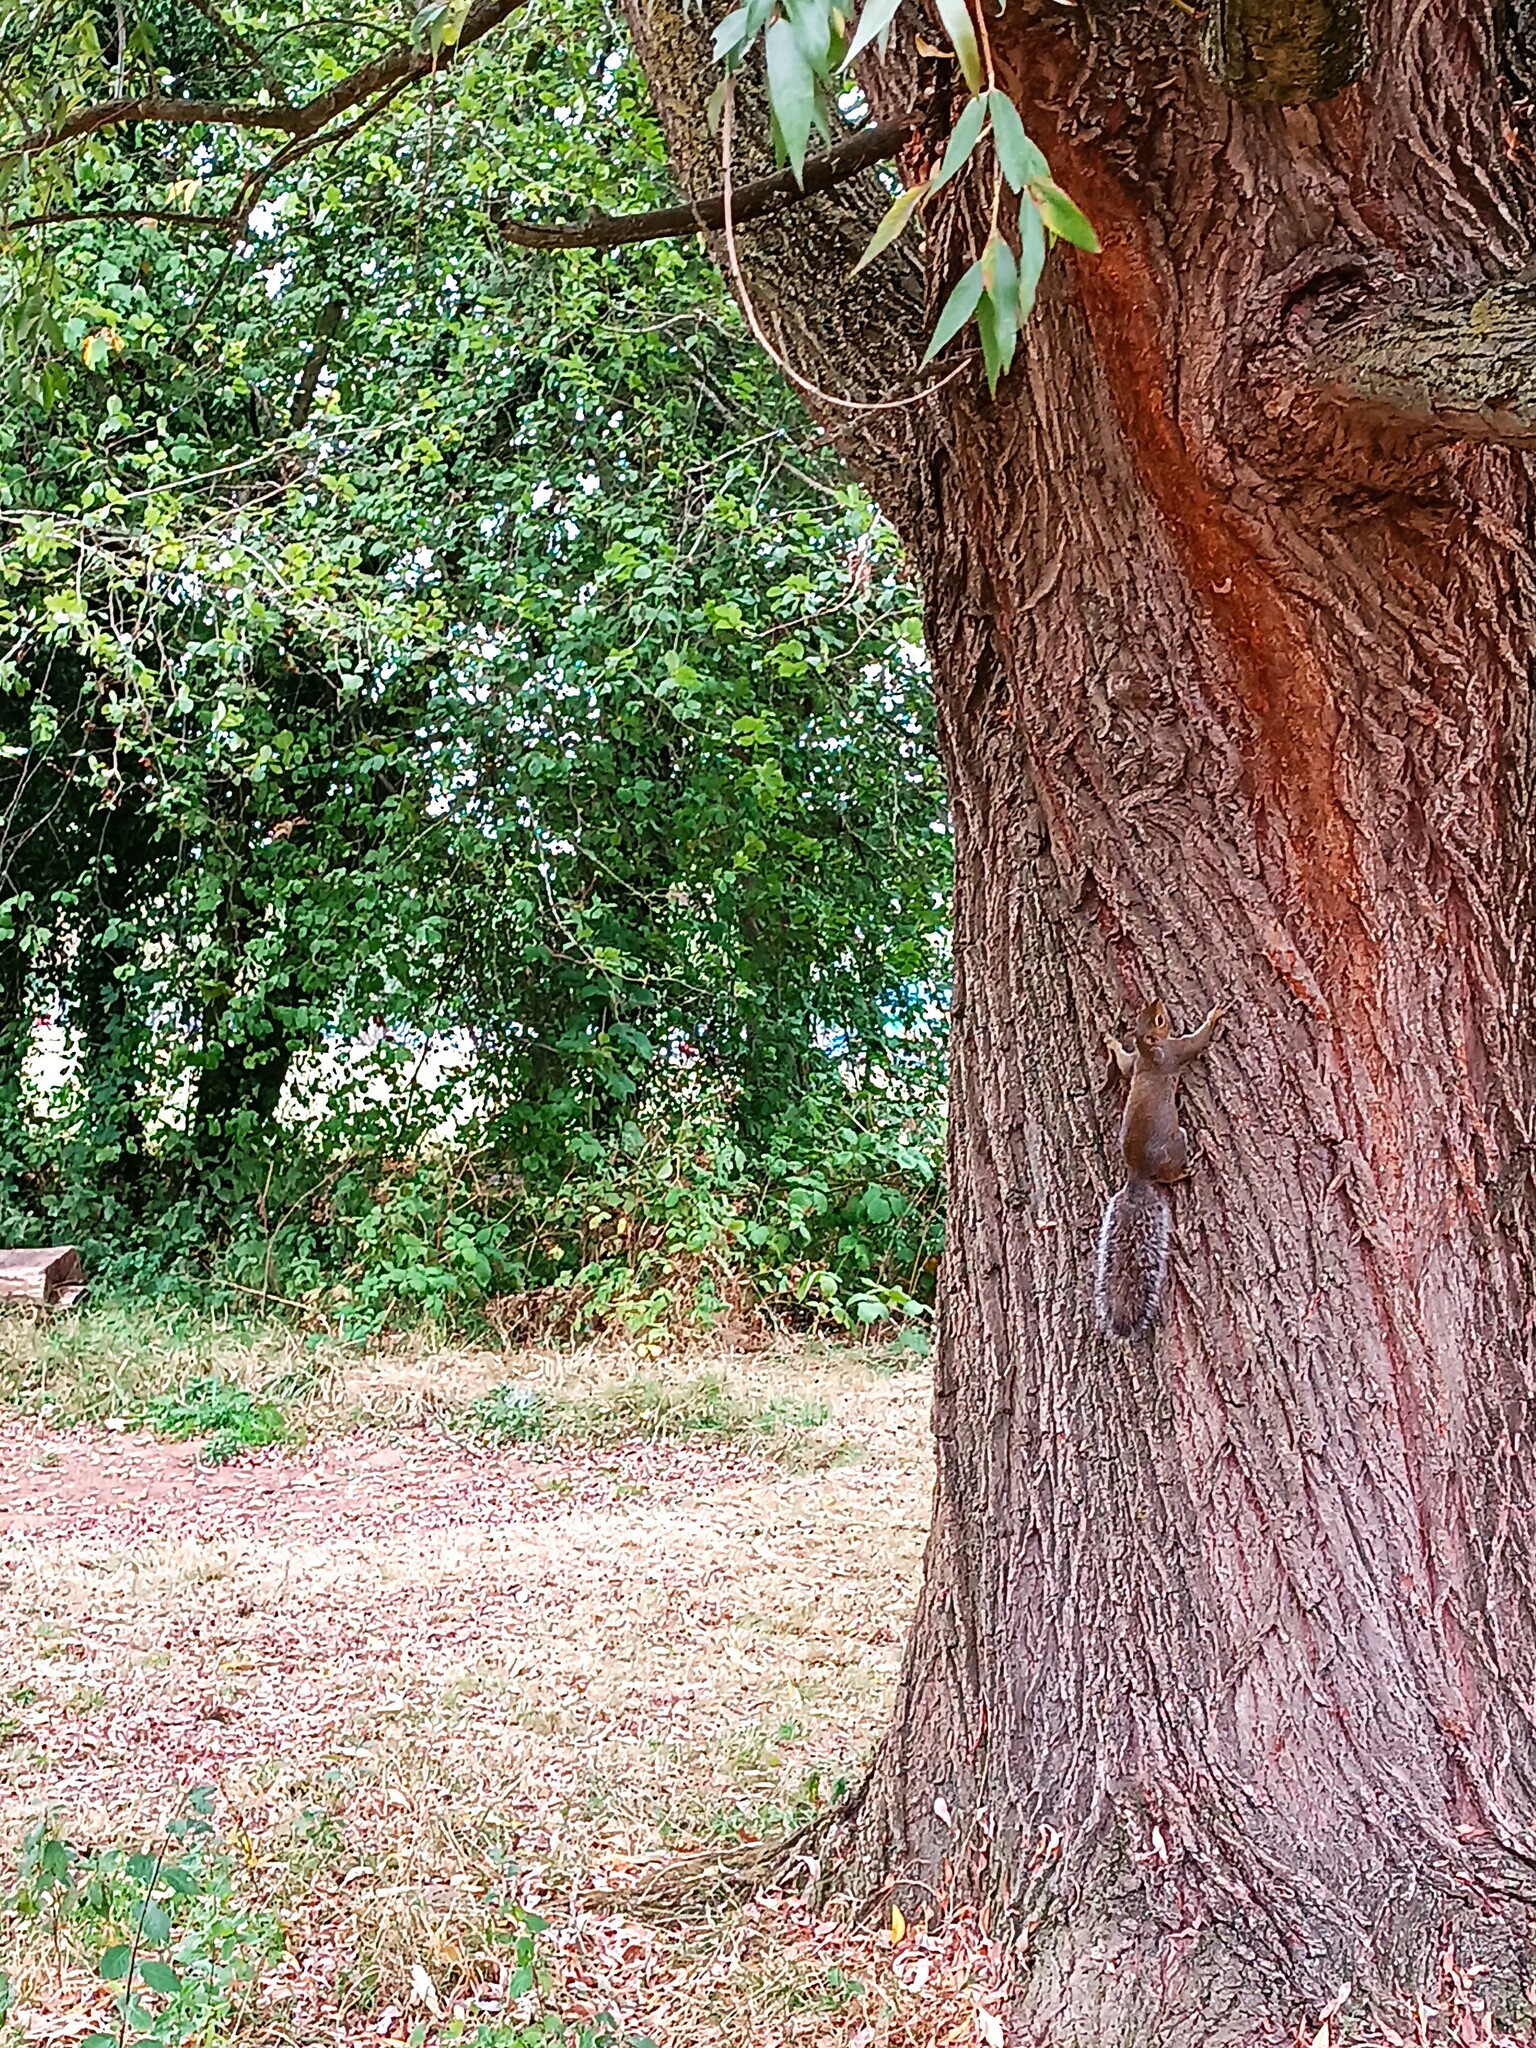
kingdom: Animalia
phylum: Chordata
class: Mammalia
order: Rodentia
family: Sciuridae
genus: Sciurus
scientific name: Sciurus carolinensis
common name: Eastern gray squirrel
